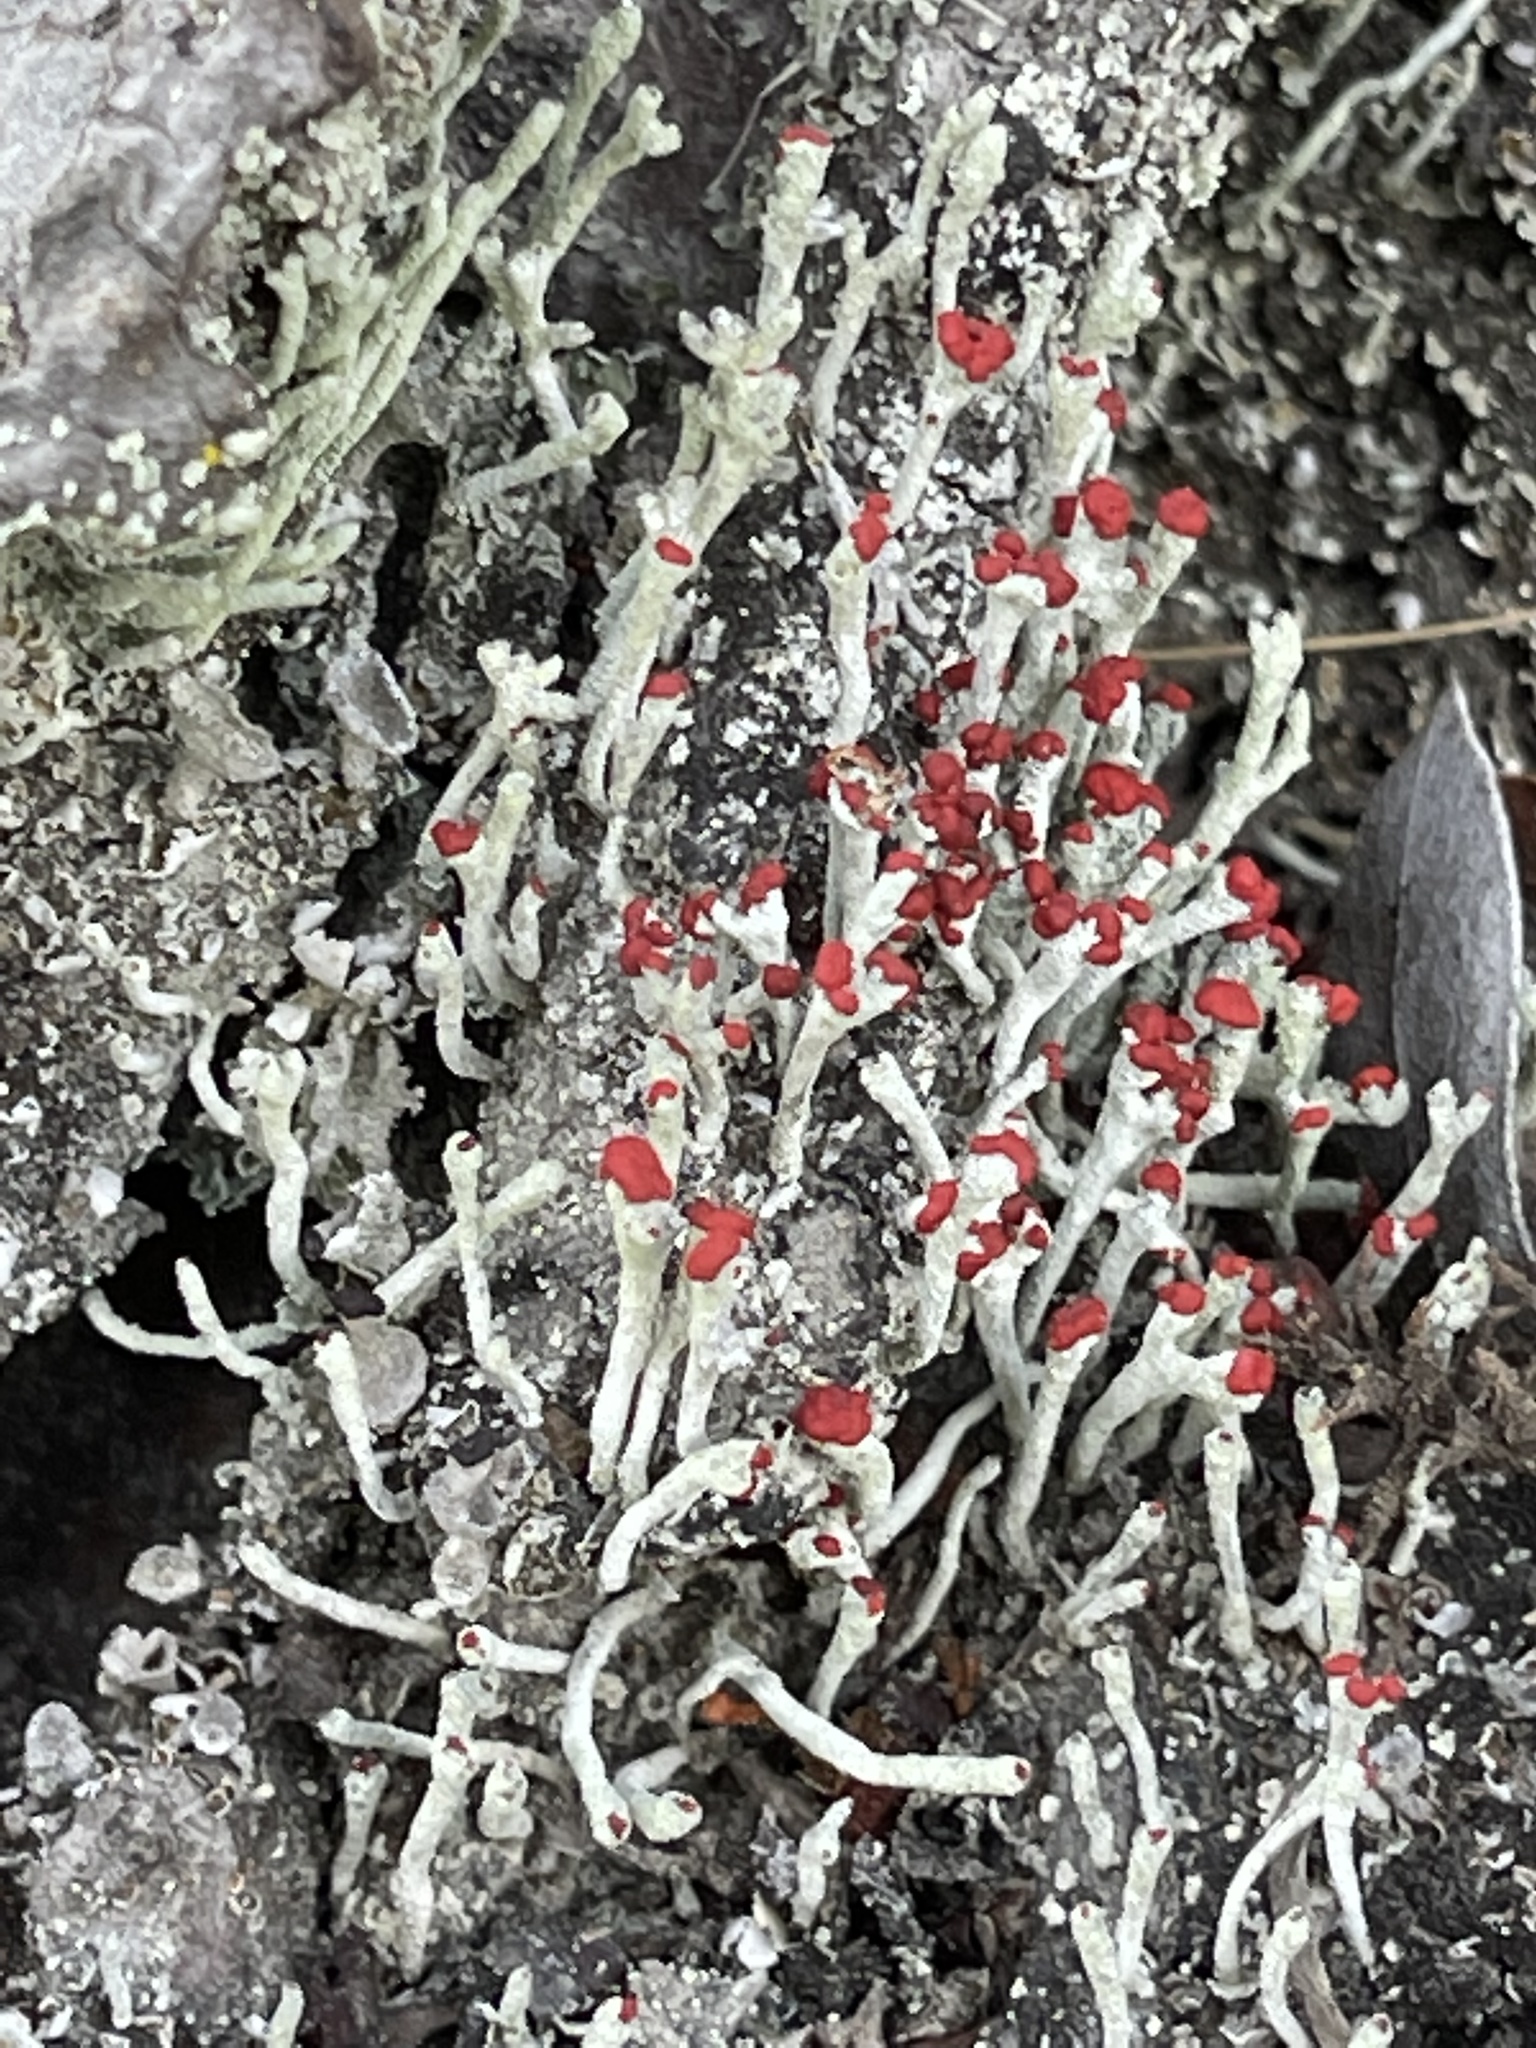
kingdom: Fungi
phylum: Ascomycota
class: Lecanoromycetes
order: Lecanorales
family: Cladoniaceae
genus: Cladonia
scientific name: Cladonia macilenta
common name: Lipstick powderhorn
